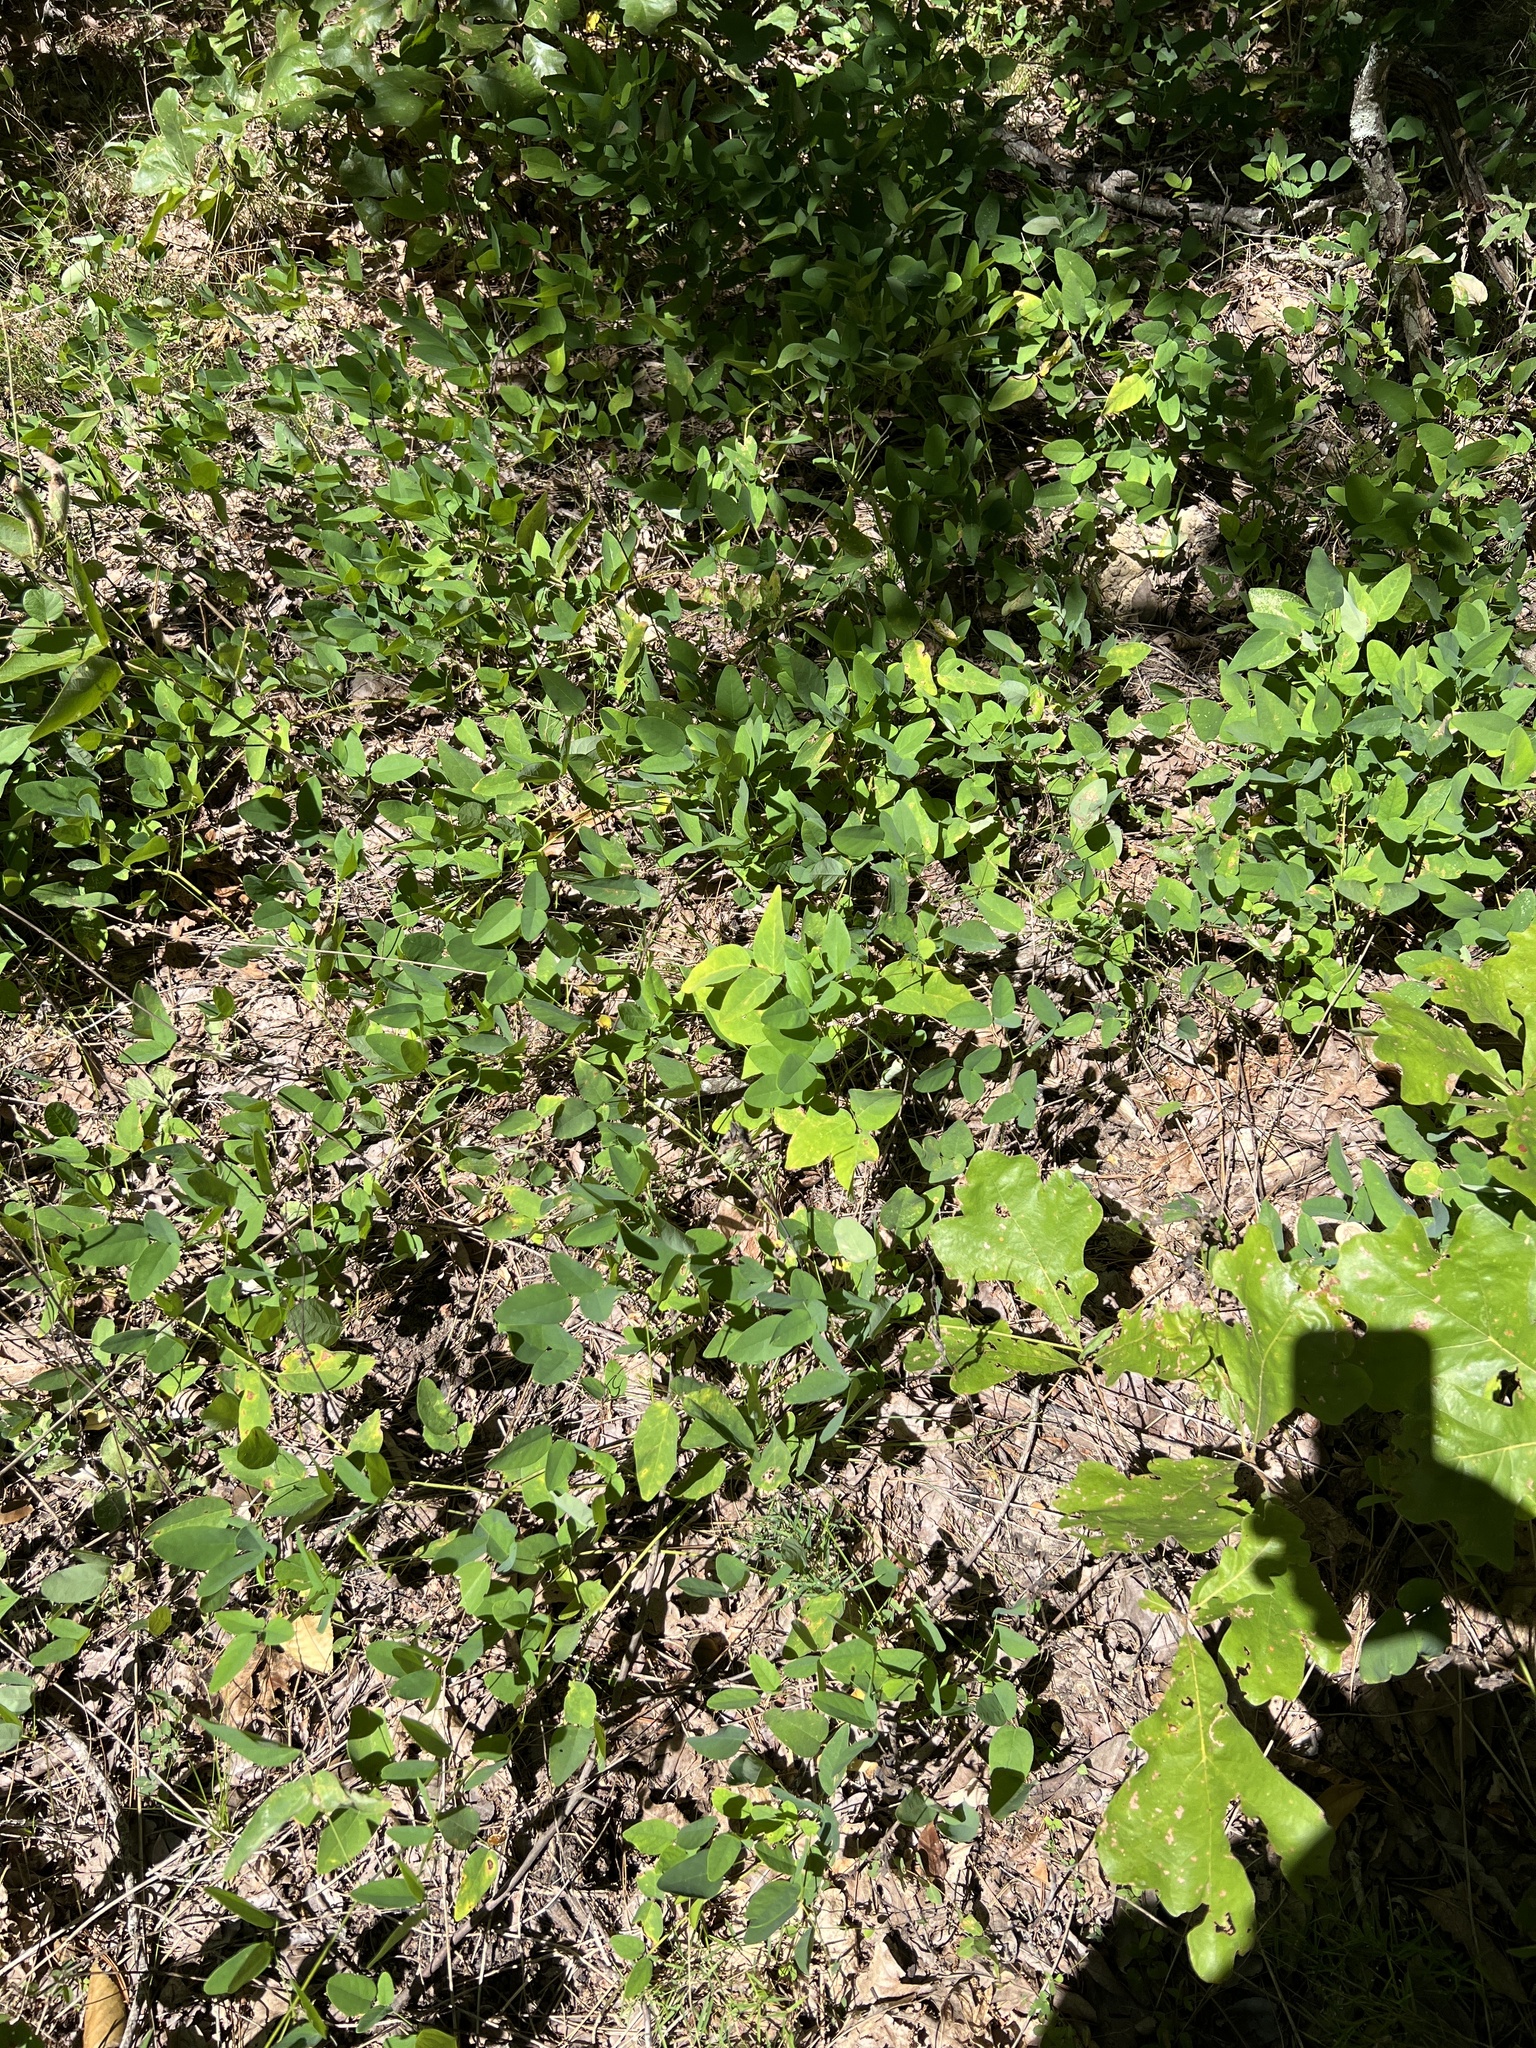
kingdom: Plantae
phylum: Tracheophyta
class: Magnoliopsida
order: Fabales
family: Fabaceae
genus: Clitoria
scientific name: Clitoria mariana
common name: Butterfly-pea
